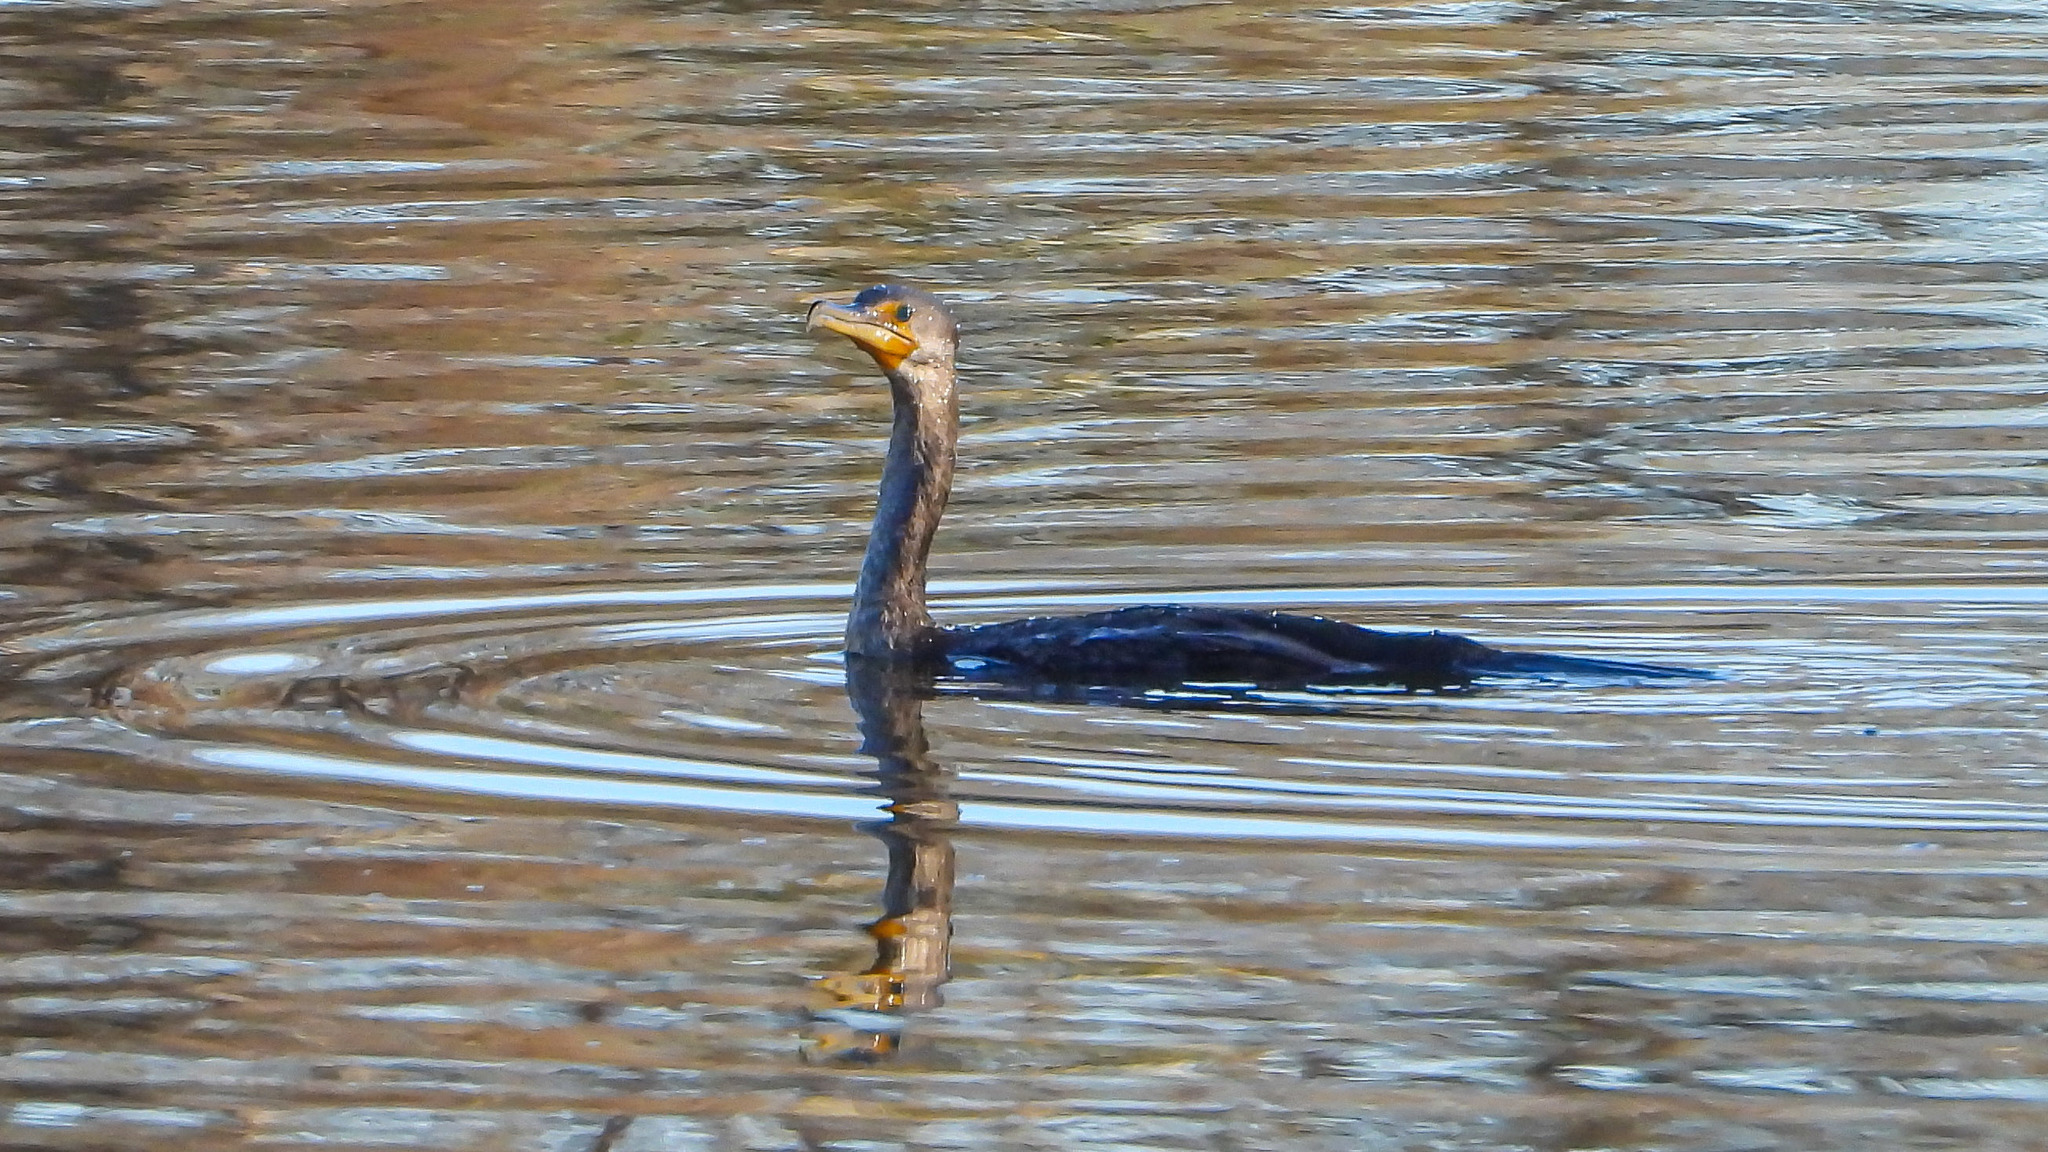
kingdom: Animalia
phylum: Chordata
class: Aves
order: Suliformes
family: Phalacrocoracidae
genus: Phalacrocorax
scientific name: Phalacrocorax auritus
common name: Double-crested cormorant
